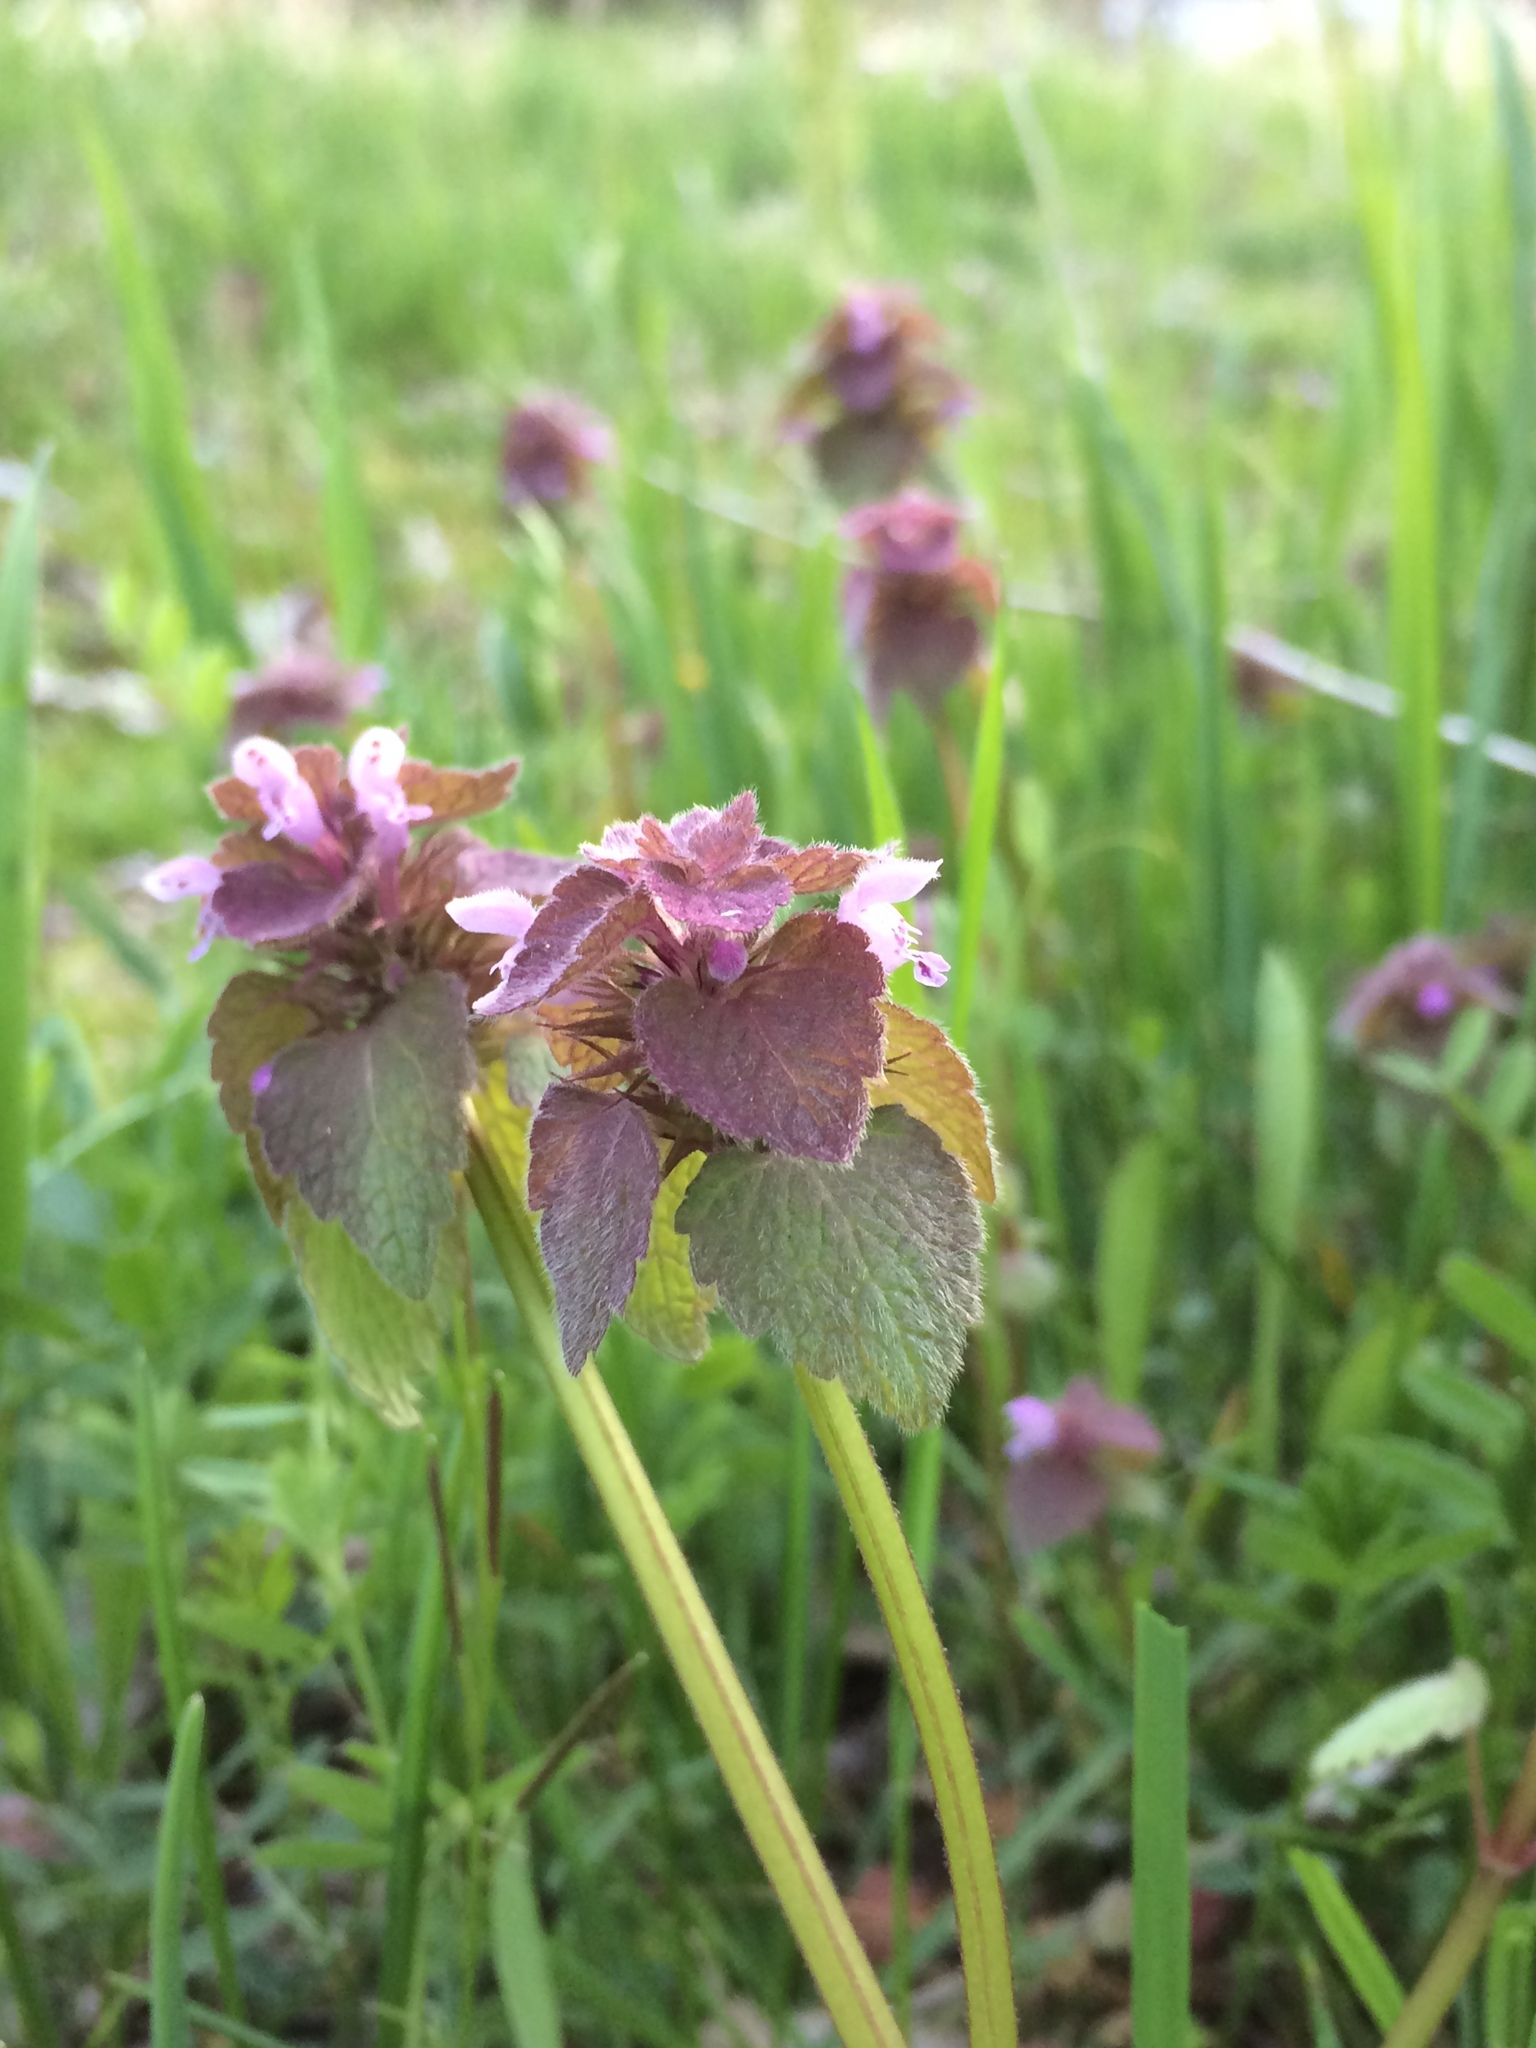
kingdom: Plantae
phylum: Tracheophyta
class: Magnoliopsida
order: Lamiales
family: Lamiaceae
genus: Lamium
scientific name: Lamium purpureum
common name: Red dead-nettle
